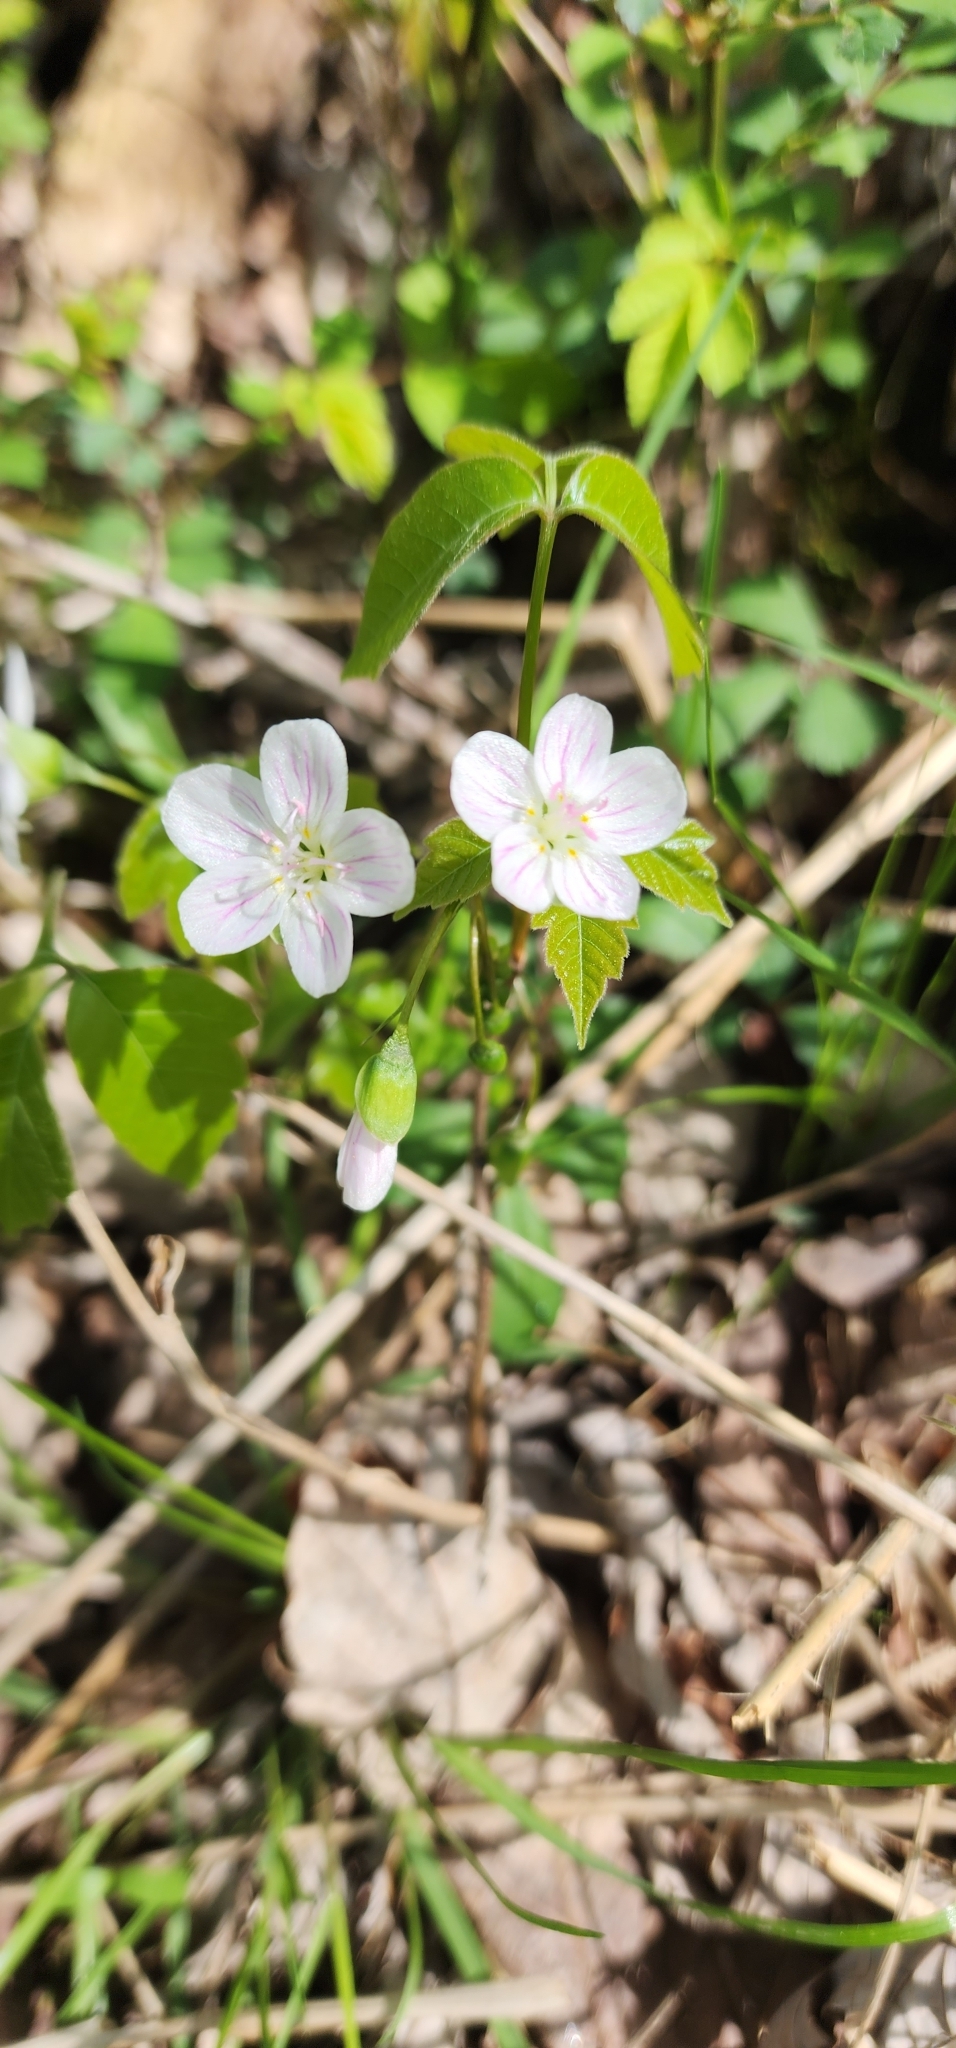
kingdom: Plantae
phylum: Tracheophyta
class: Magnoliopsida
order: Caryophyllales
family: Montiaceae
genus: Claytonia
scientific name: Claytonia virginica
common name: Virginia springbeauty
